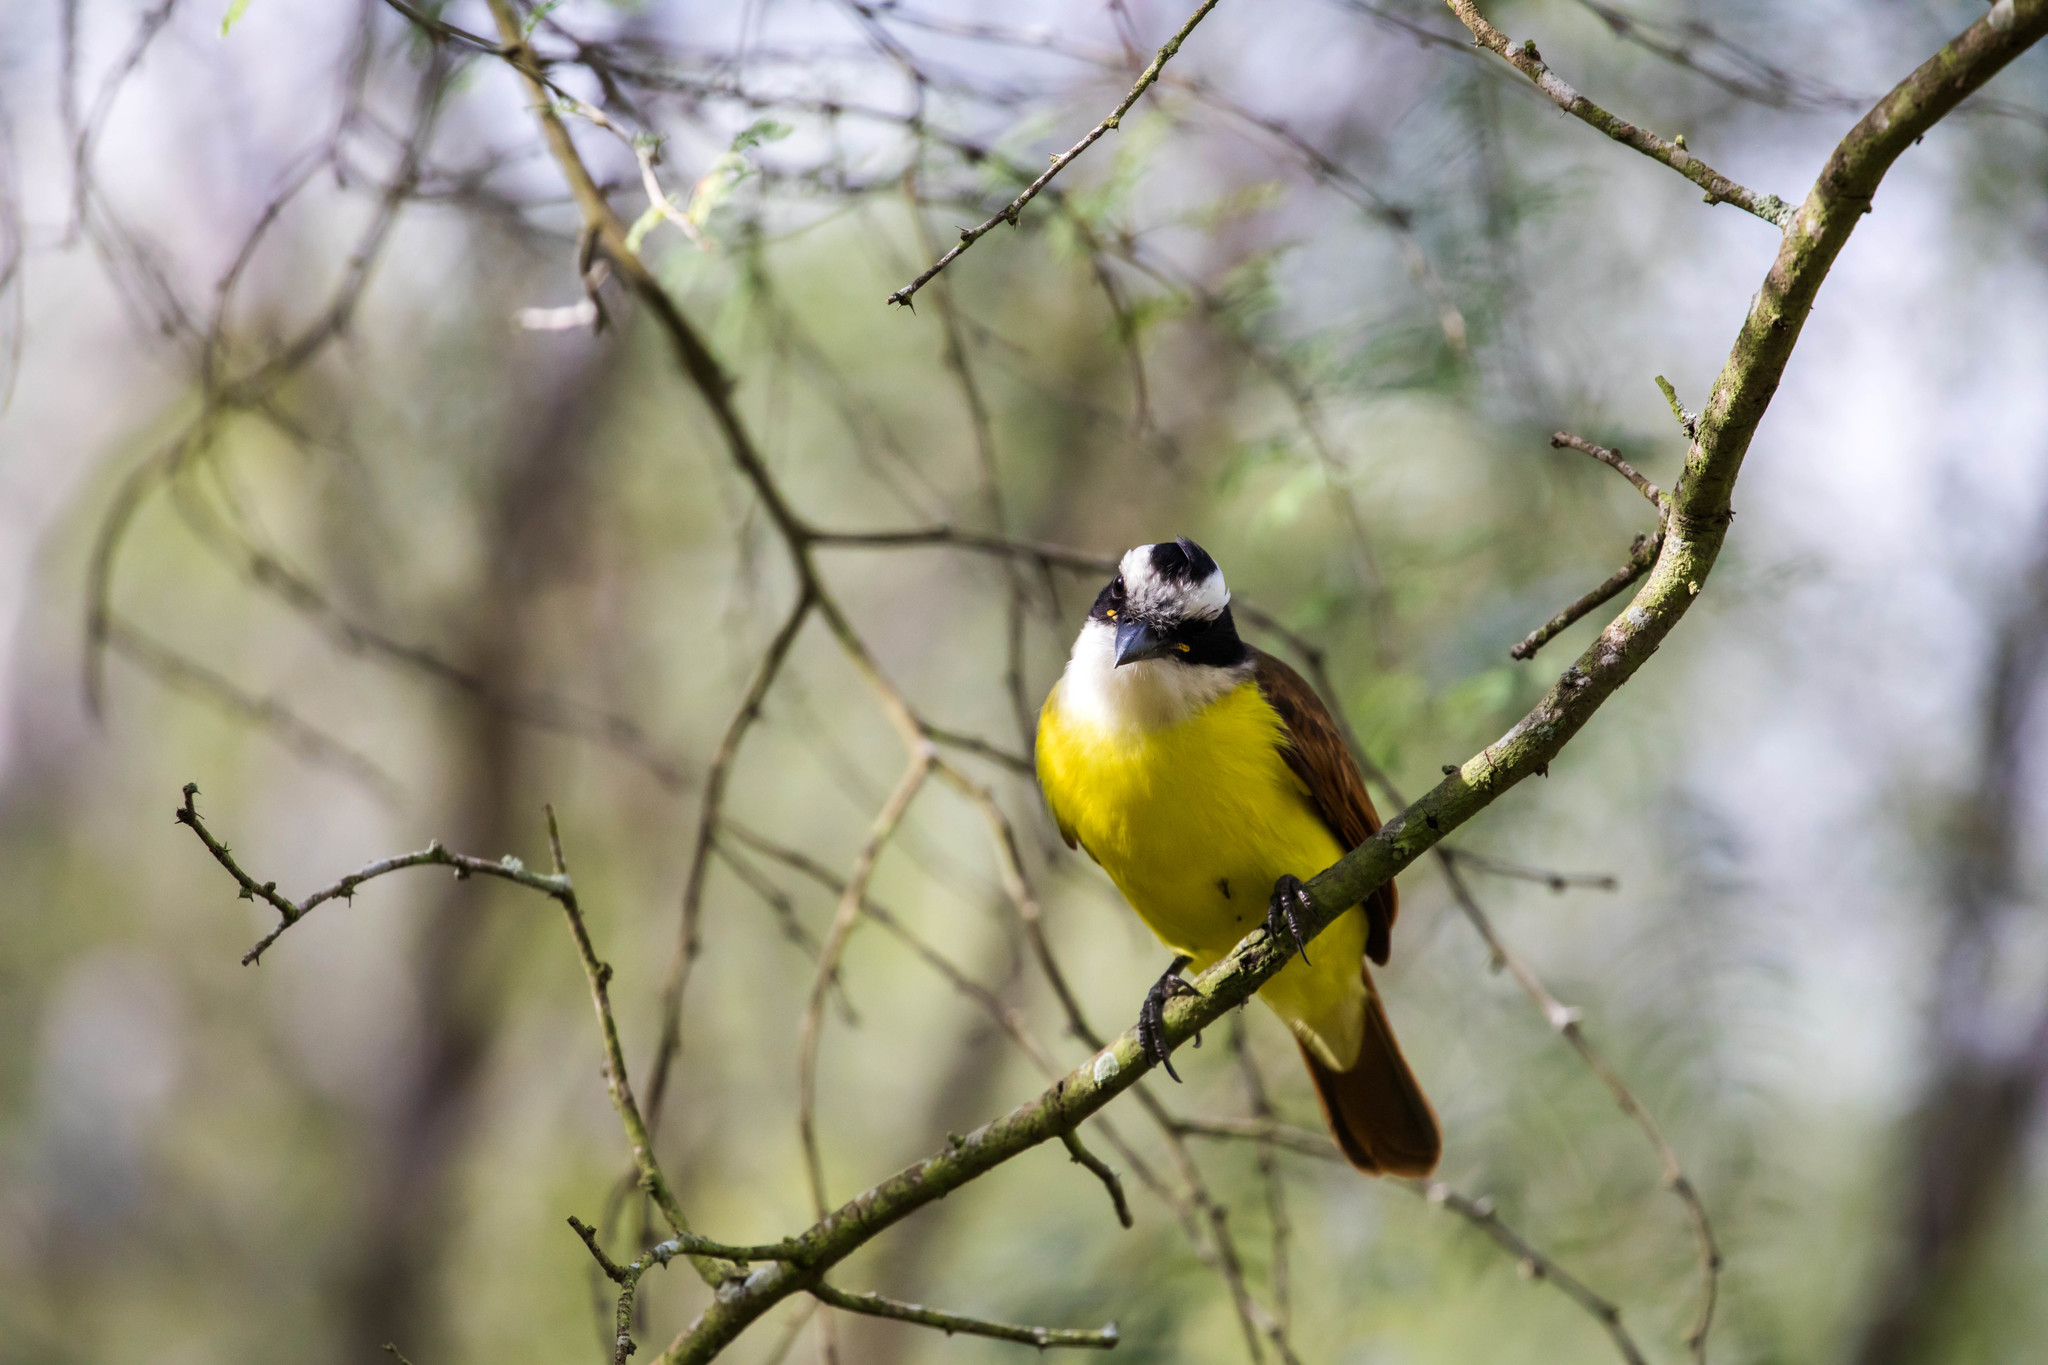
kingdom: Animalia
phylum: Chordata
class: Aves
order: Passeriformes
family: Tyrannidae
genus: Pitangus
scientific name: Pitangus sulphuratus
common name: Great kiskadee
